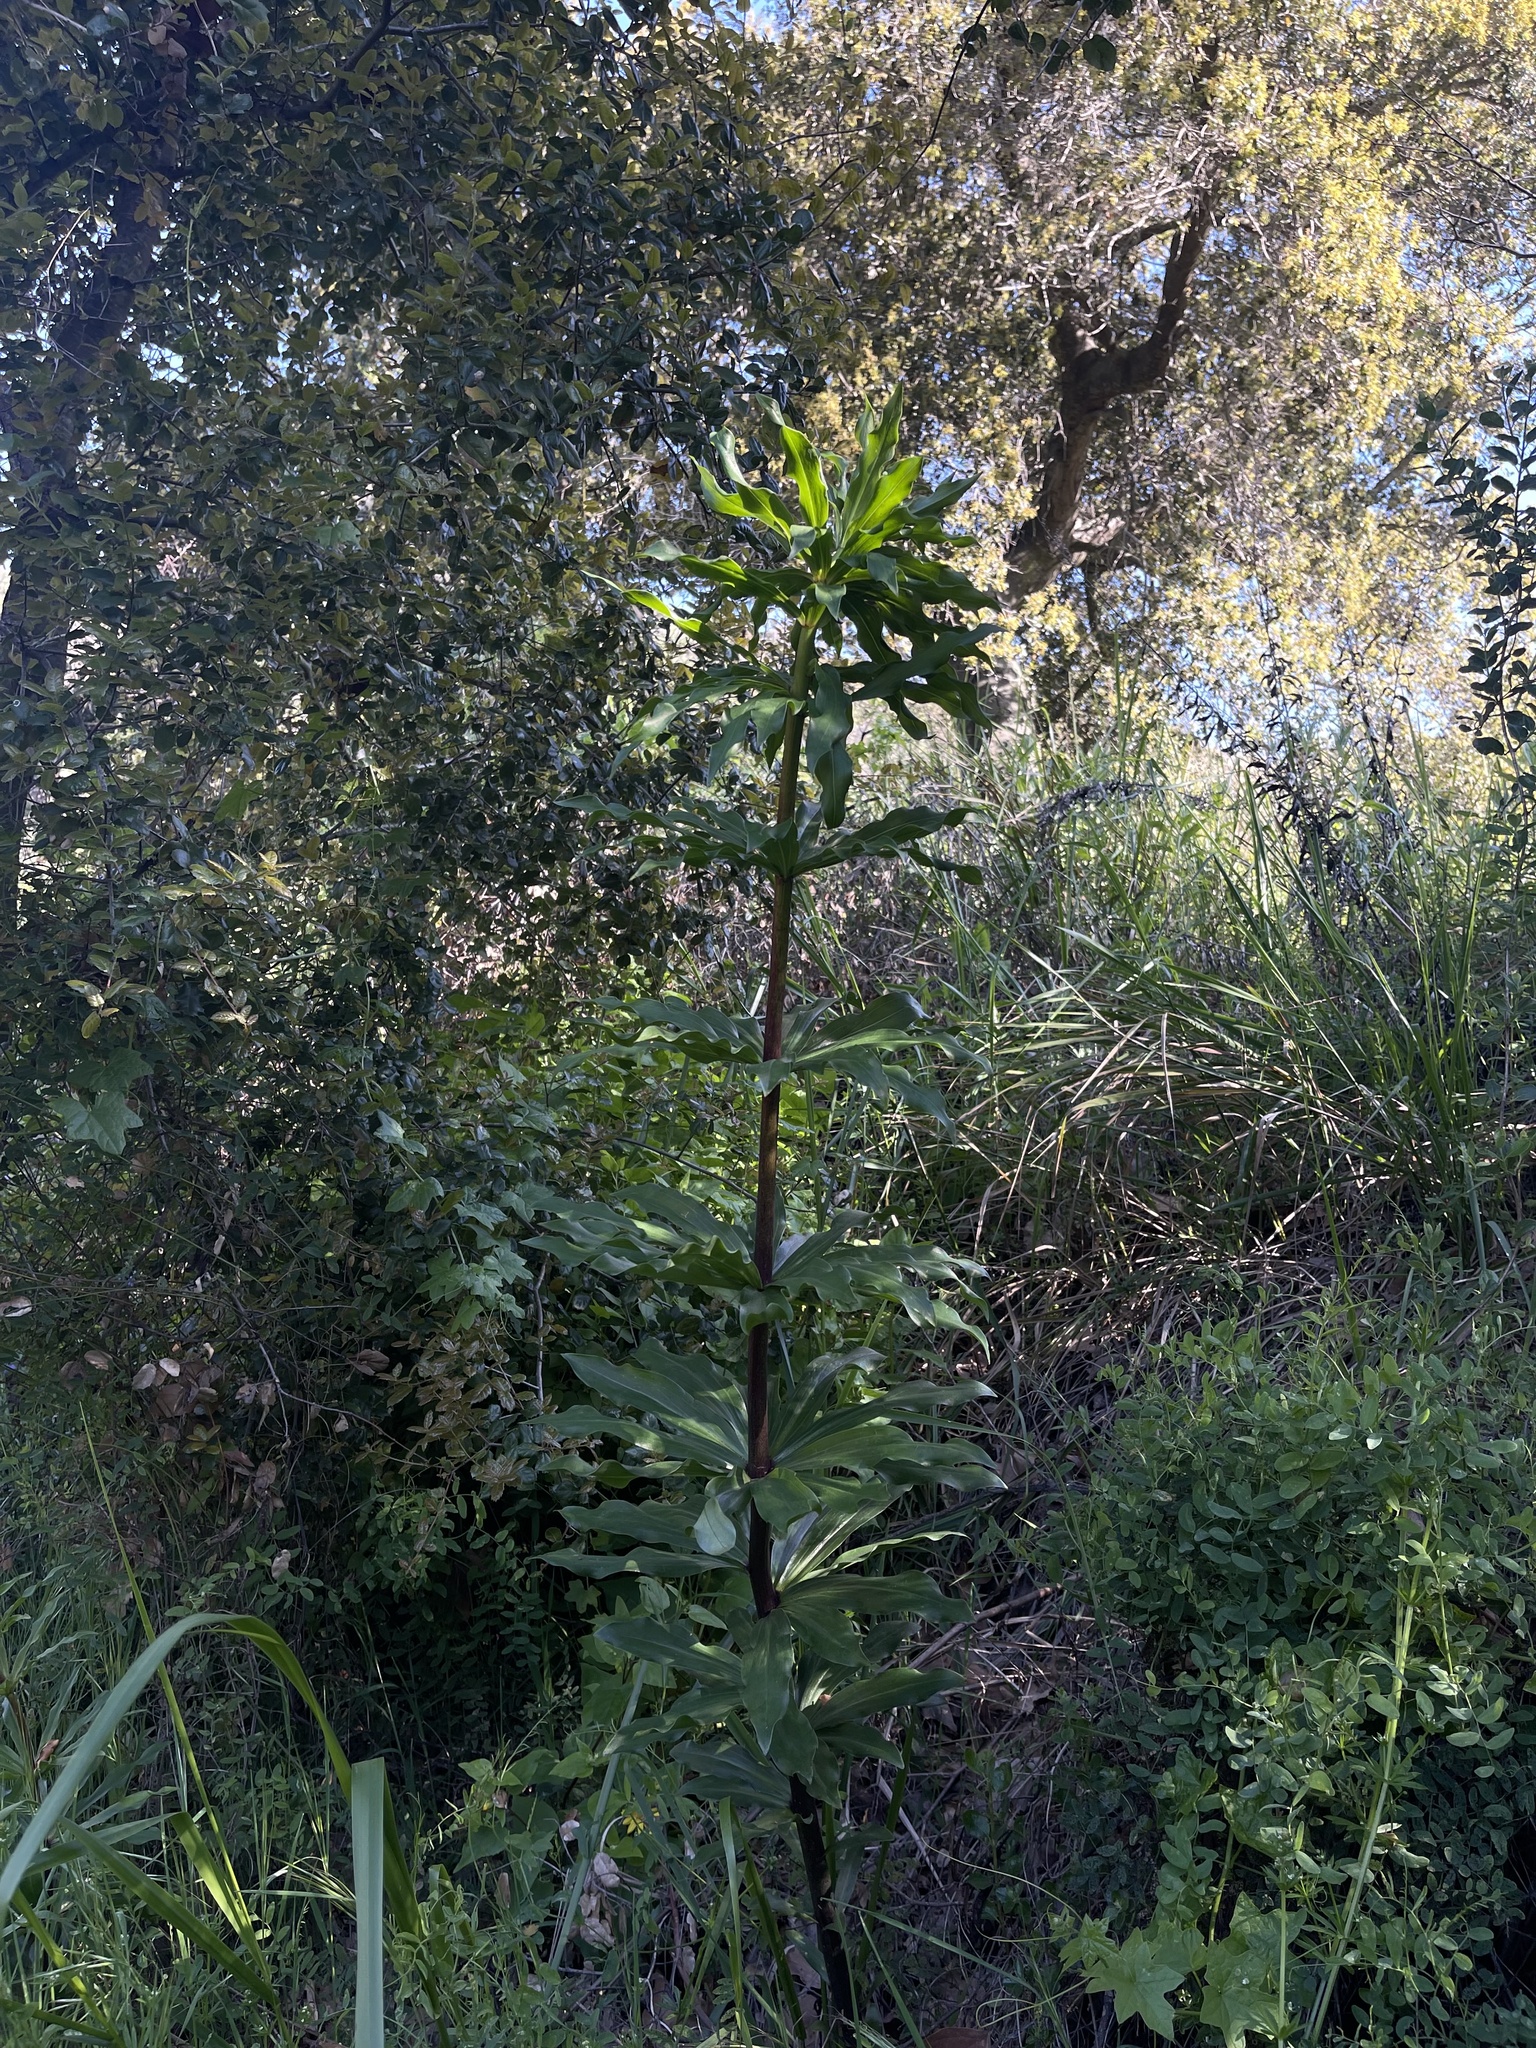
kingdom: Plantae
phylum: Tracheophyta
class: Liliopsida
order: Liliales
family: Liliaceae
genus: Lilium
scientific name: Lilium humboldtii
